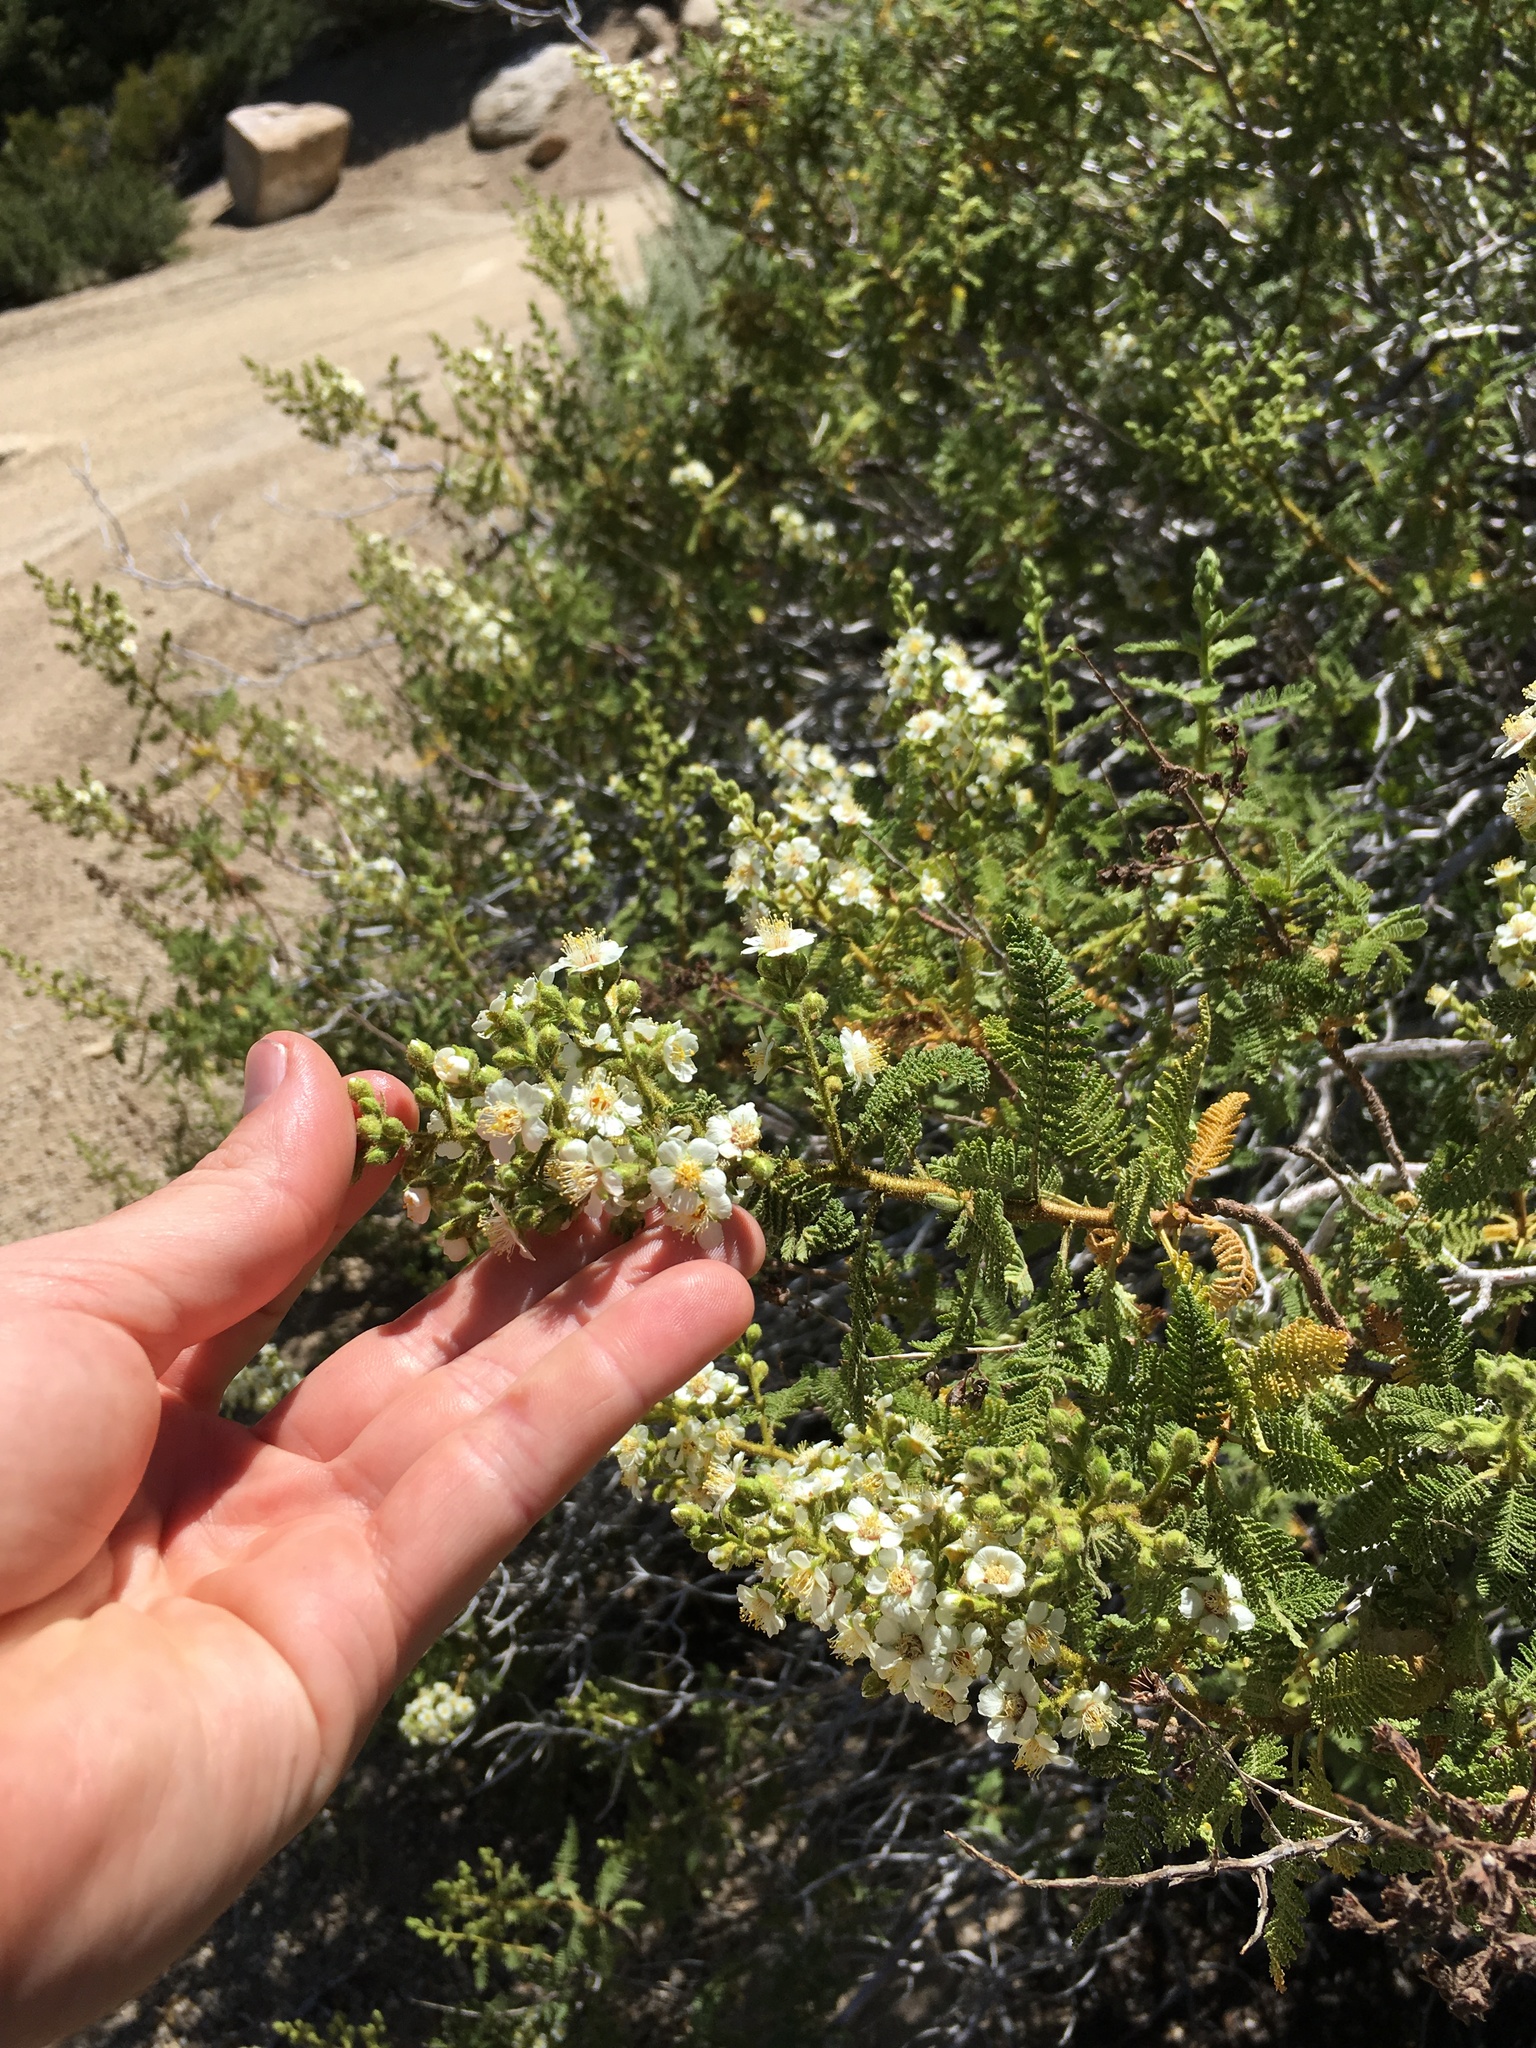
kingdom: Plantae
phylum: Tracheophyta
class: Magnoliopsida
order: Rosales
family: Rosaceae
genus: Chamaebatiaria
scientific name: Chamaebatiaria millefolium
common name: Fernbush
